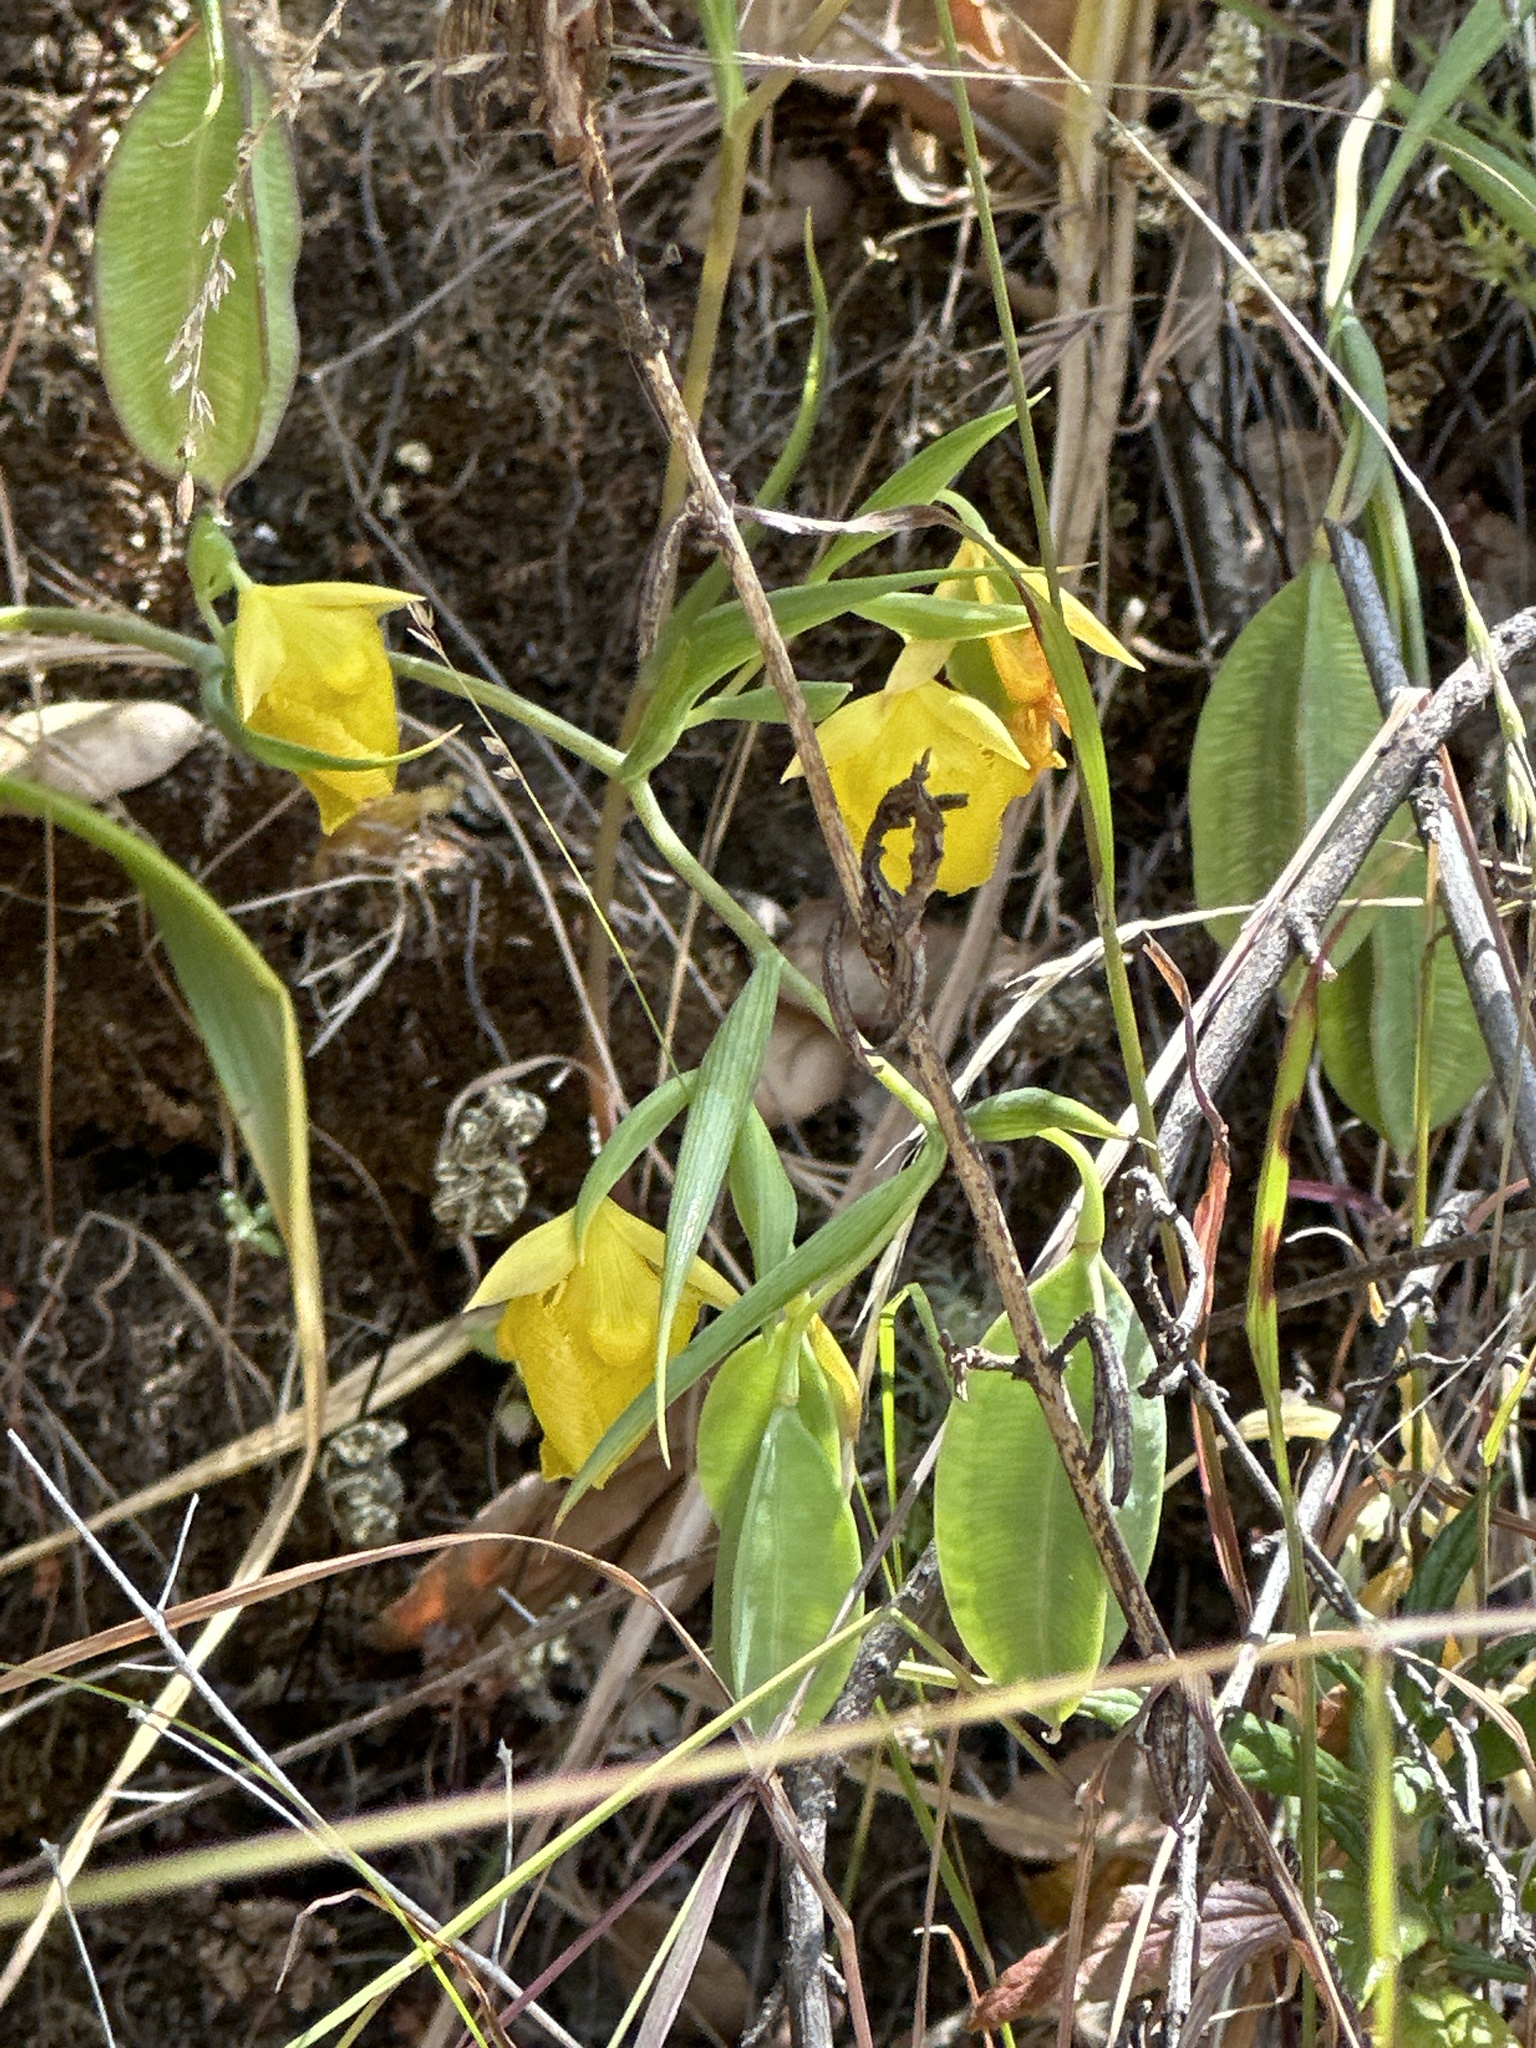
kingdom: Plantae
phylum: Tracheophyta
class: Liliopsida
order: Liliales
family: Liliaceae
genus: Calochortus
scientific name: Calochortus pulchellus
